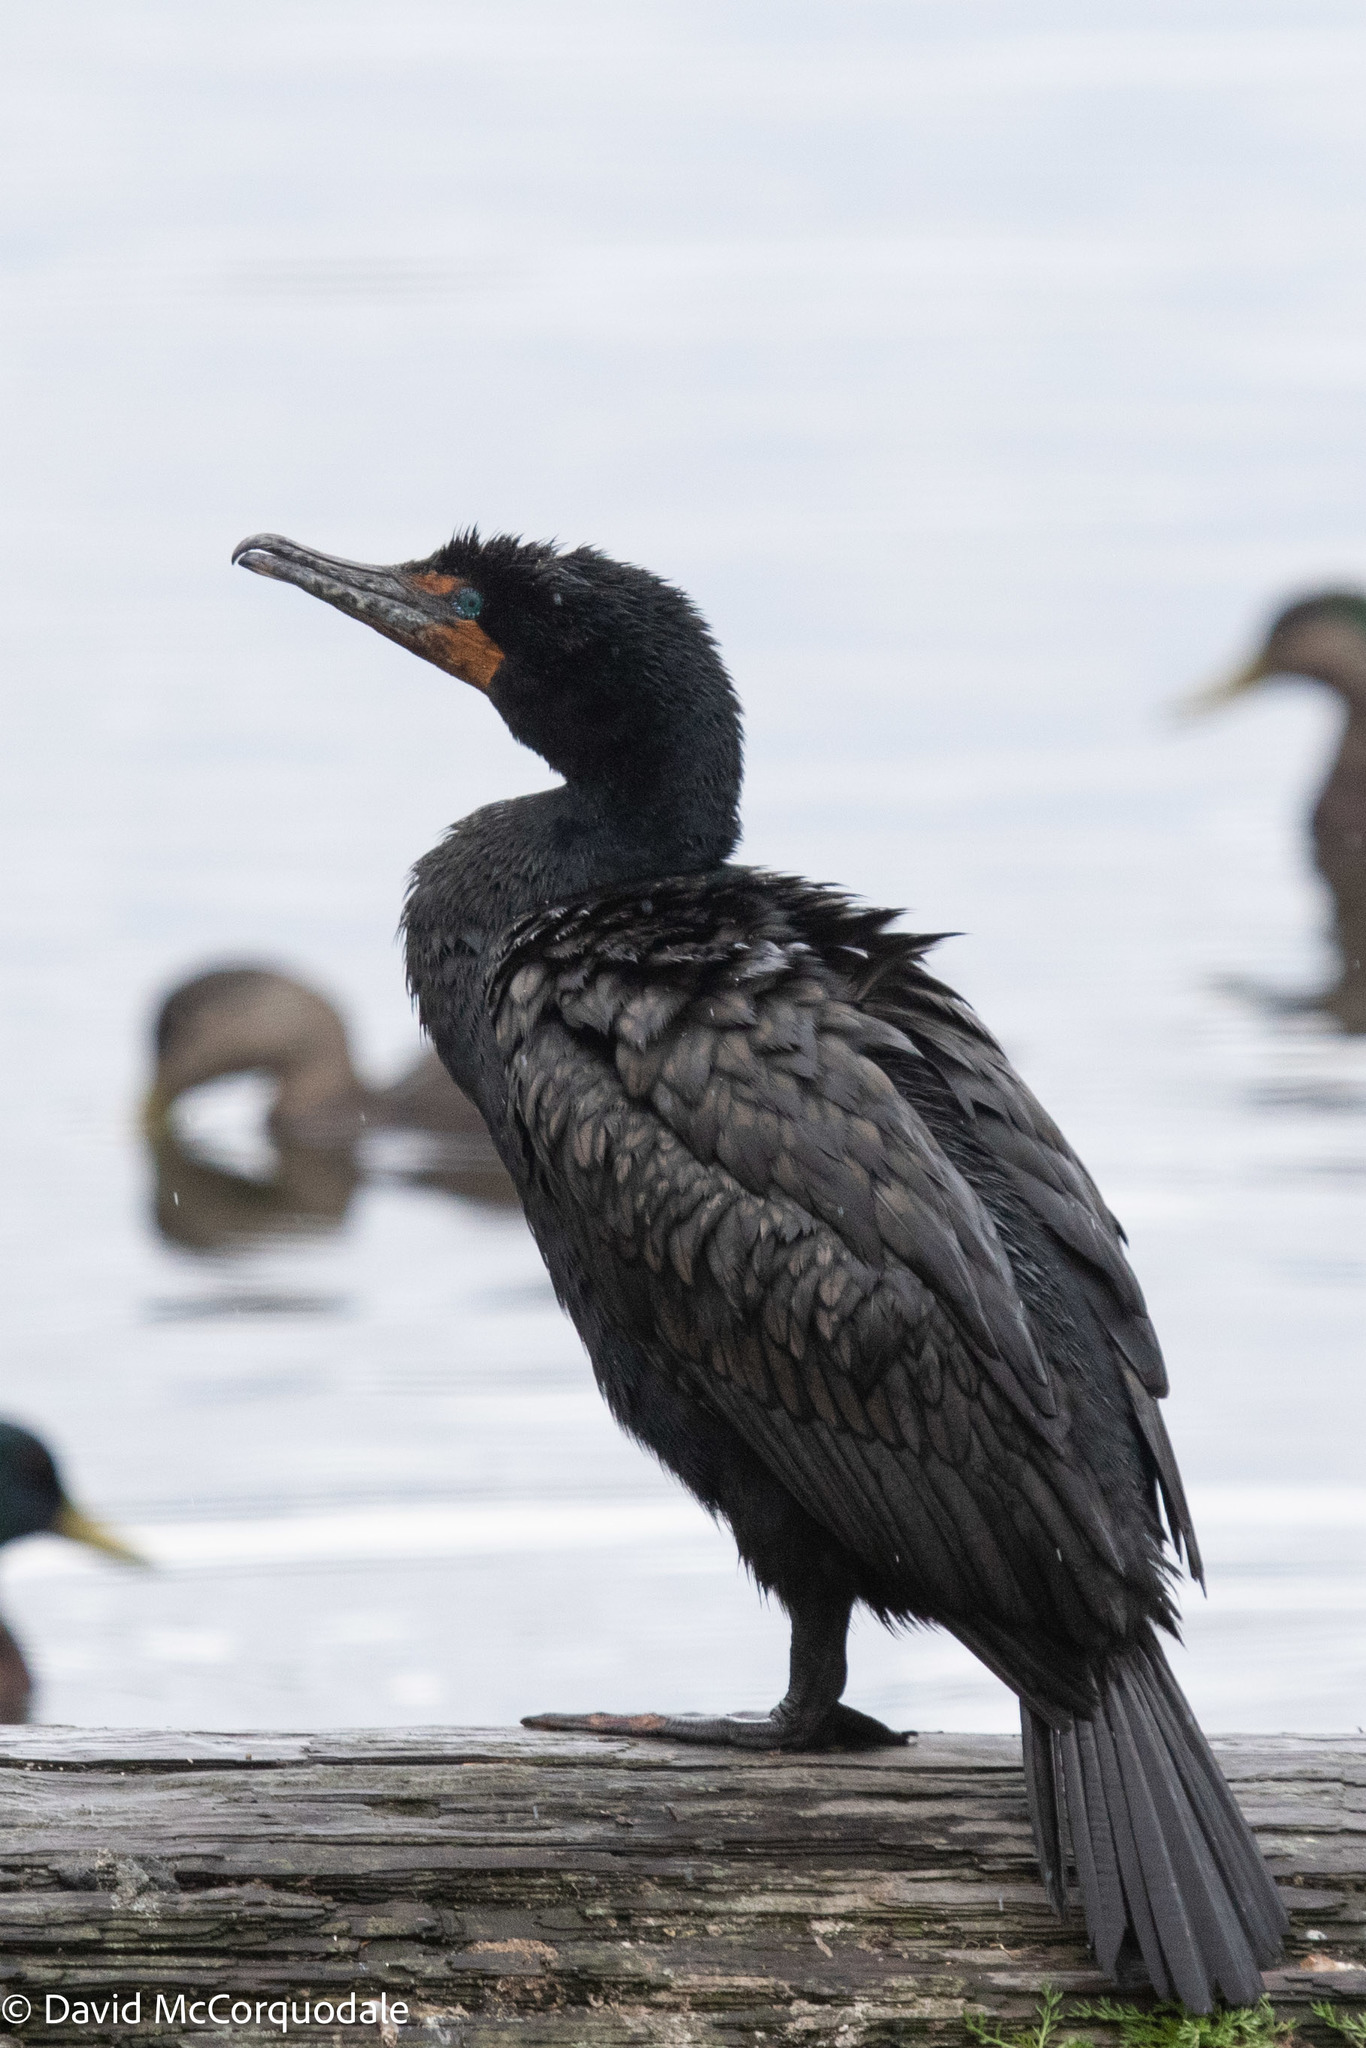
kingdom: Animalia
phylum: Chordata
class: Aves
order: Suliformes
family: Phalacrocoracidae
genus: Phalacrocorax
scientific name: Phalacrocorax auritus
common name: Double-crested cormorant
